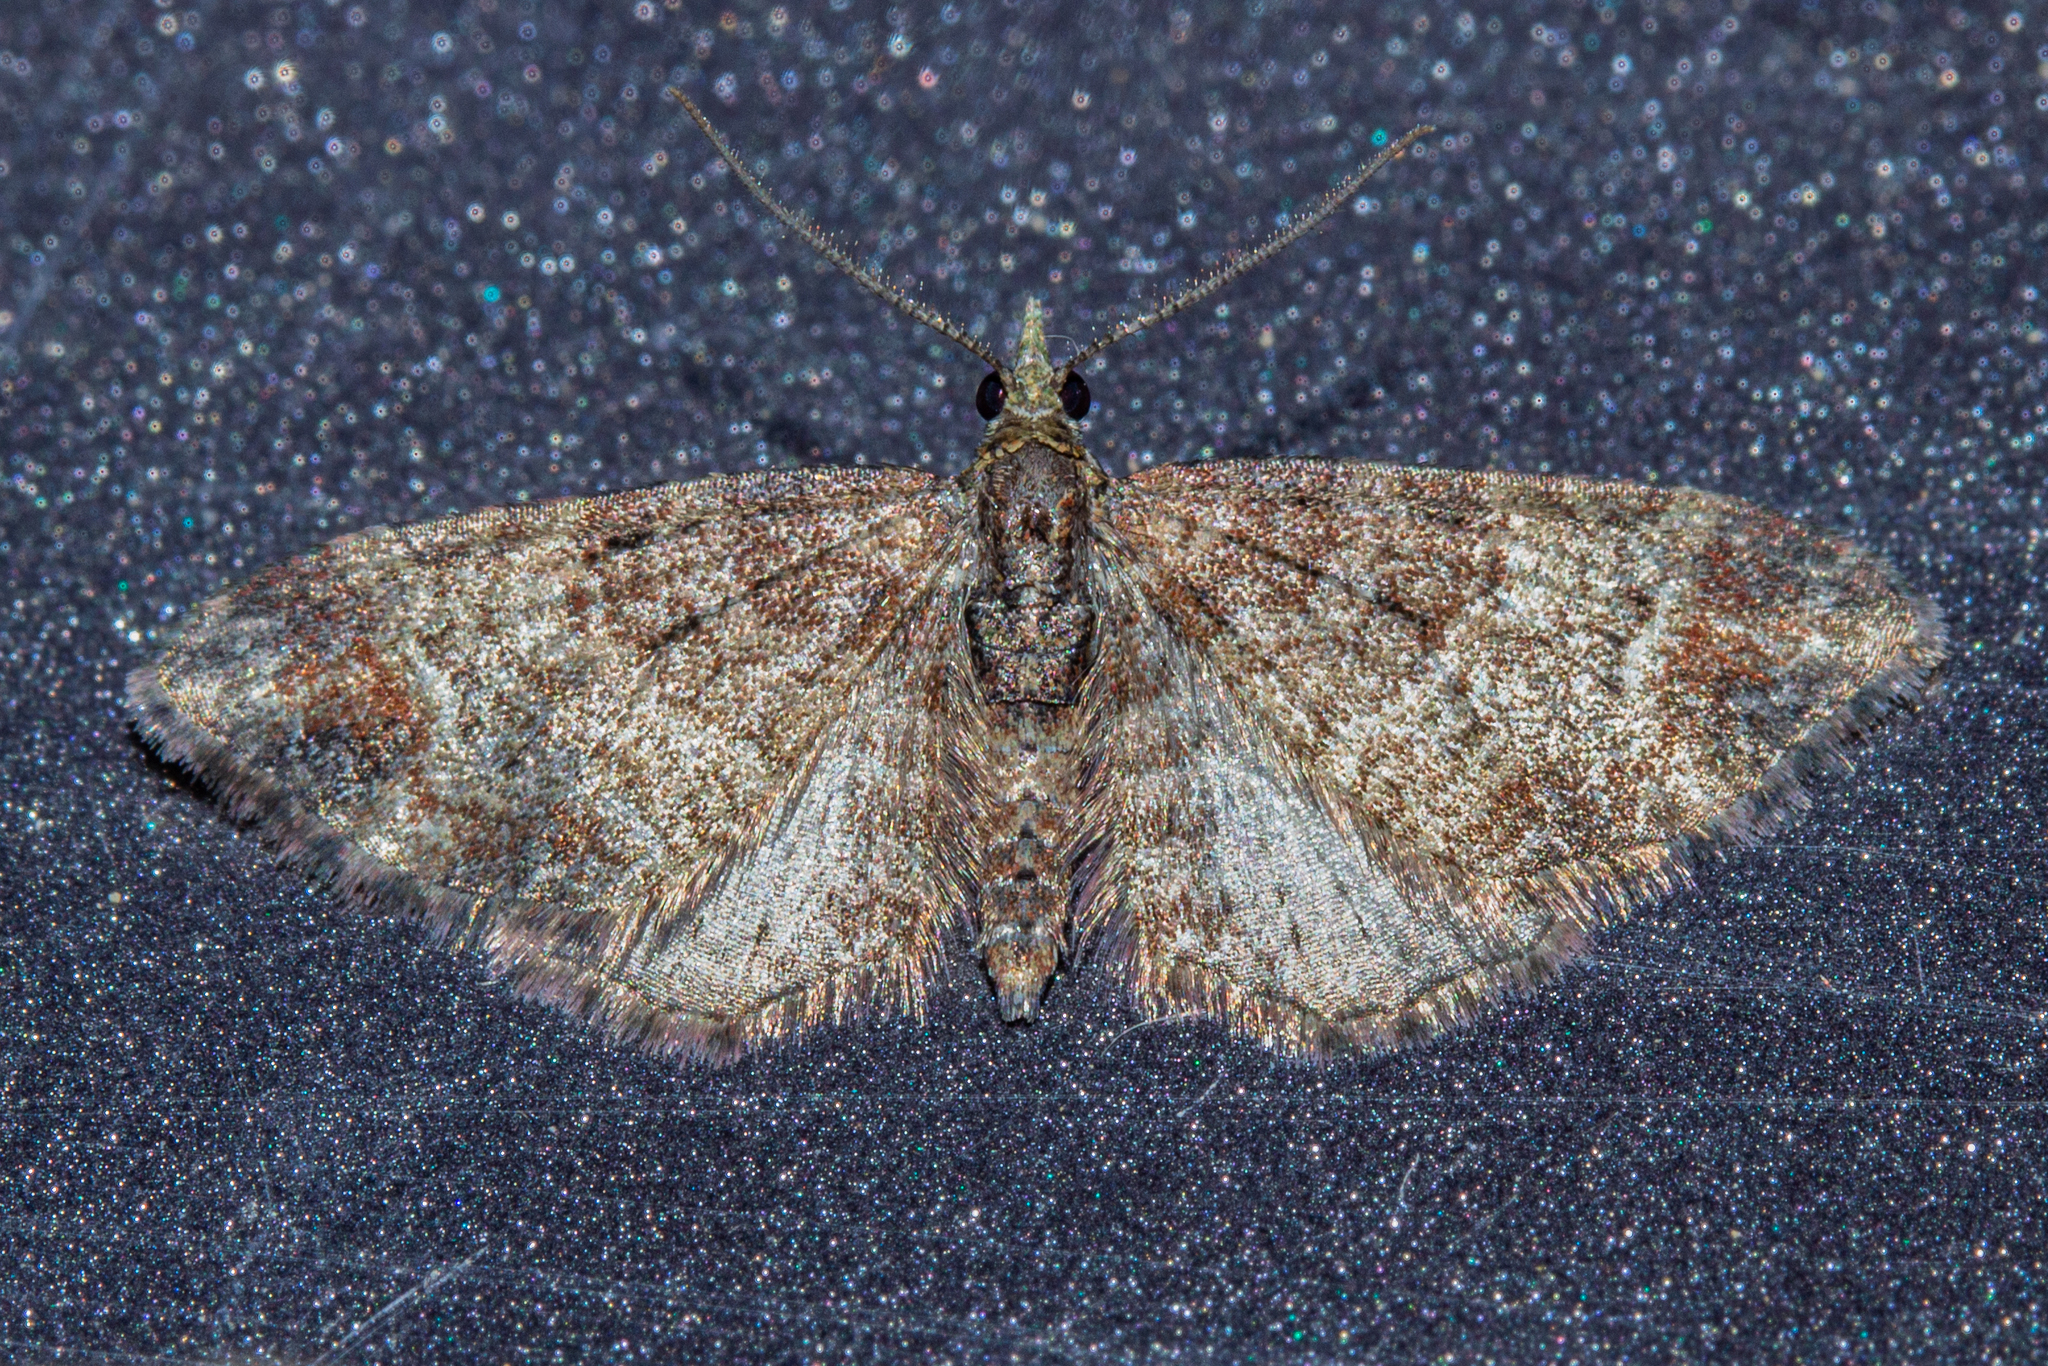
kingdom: Animalia
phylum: Arthropoda
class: Insecta
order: Lepidoptera
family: Geometridae
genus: Pasiphila
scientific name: Pasiphila sandycias
